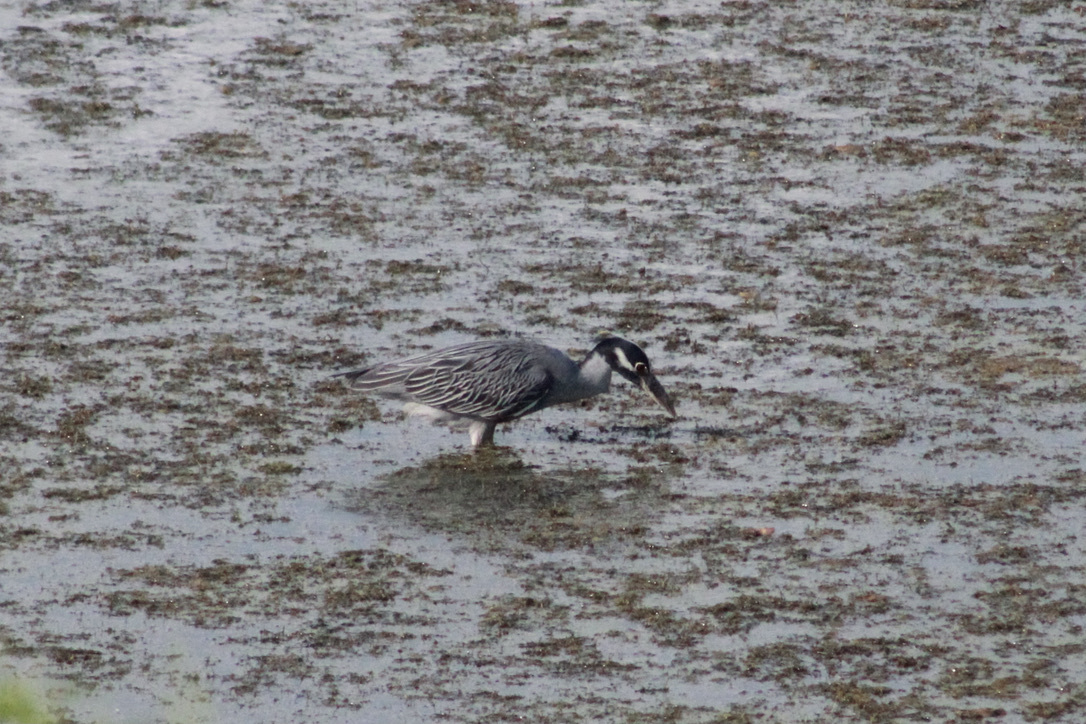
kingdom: Animalia
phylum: Chordata
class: Aves
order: Pelecaniformes
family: Ardeidae
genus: Nyctanassa
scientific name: Nyctanassa violacea
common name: Yellow-crowned night heron
